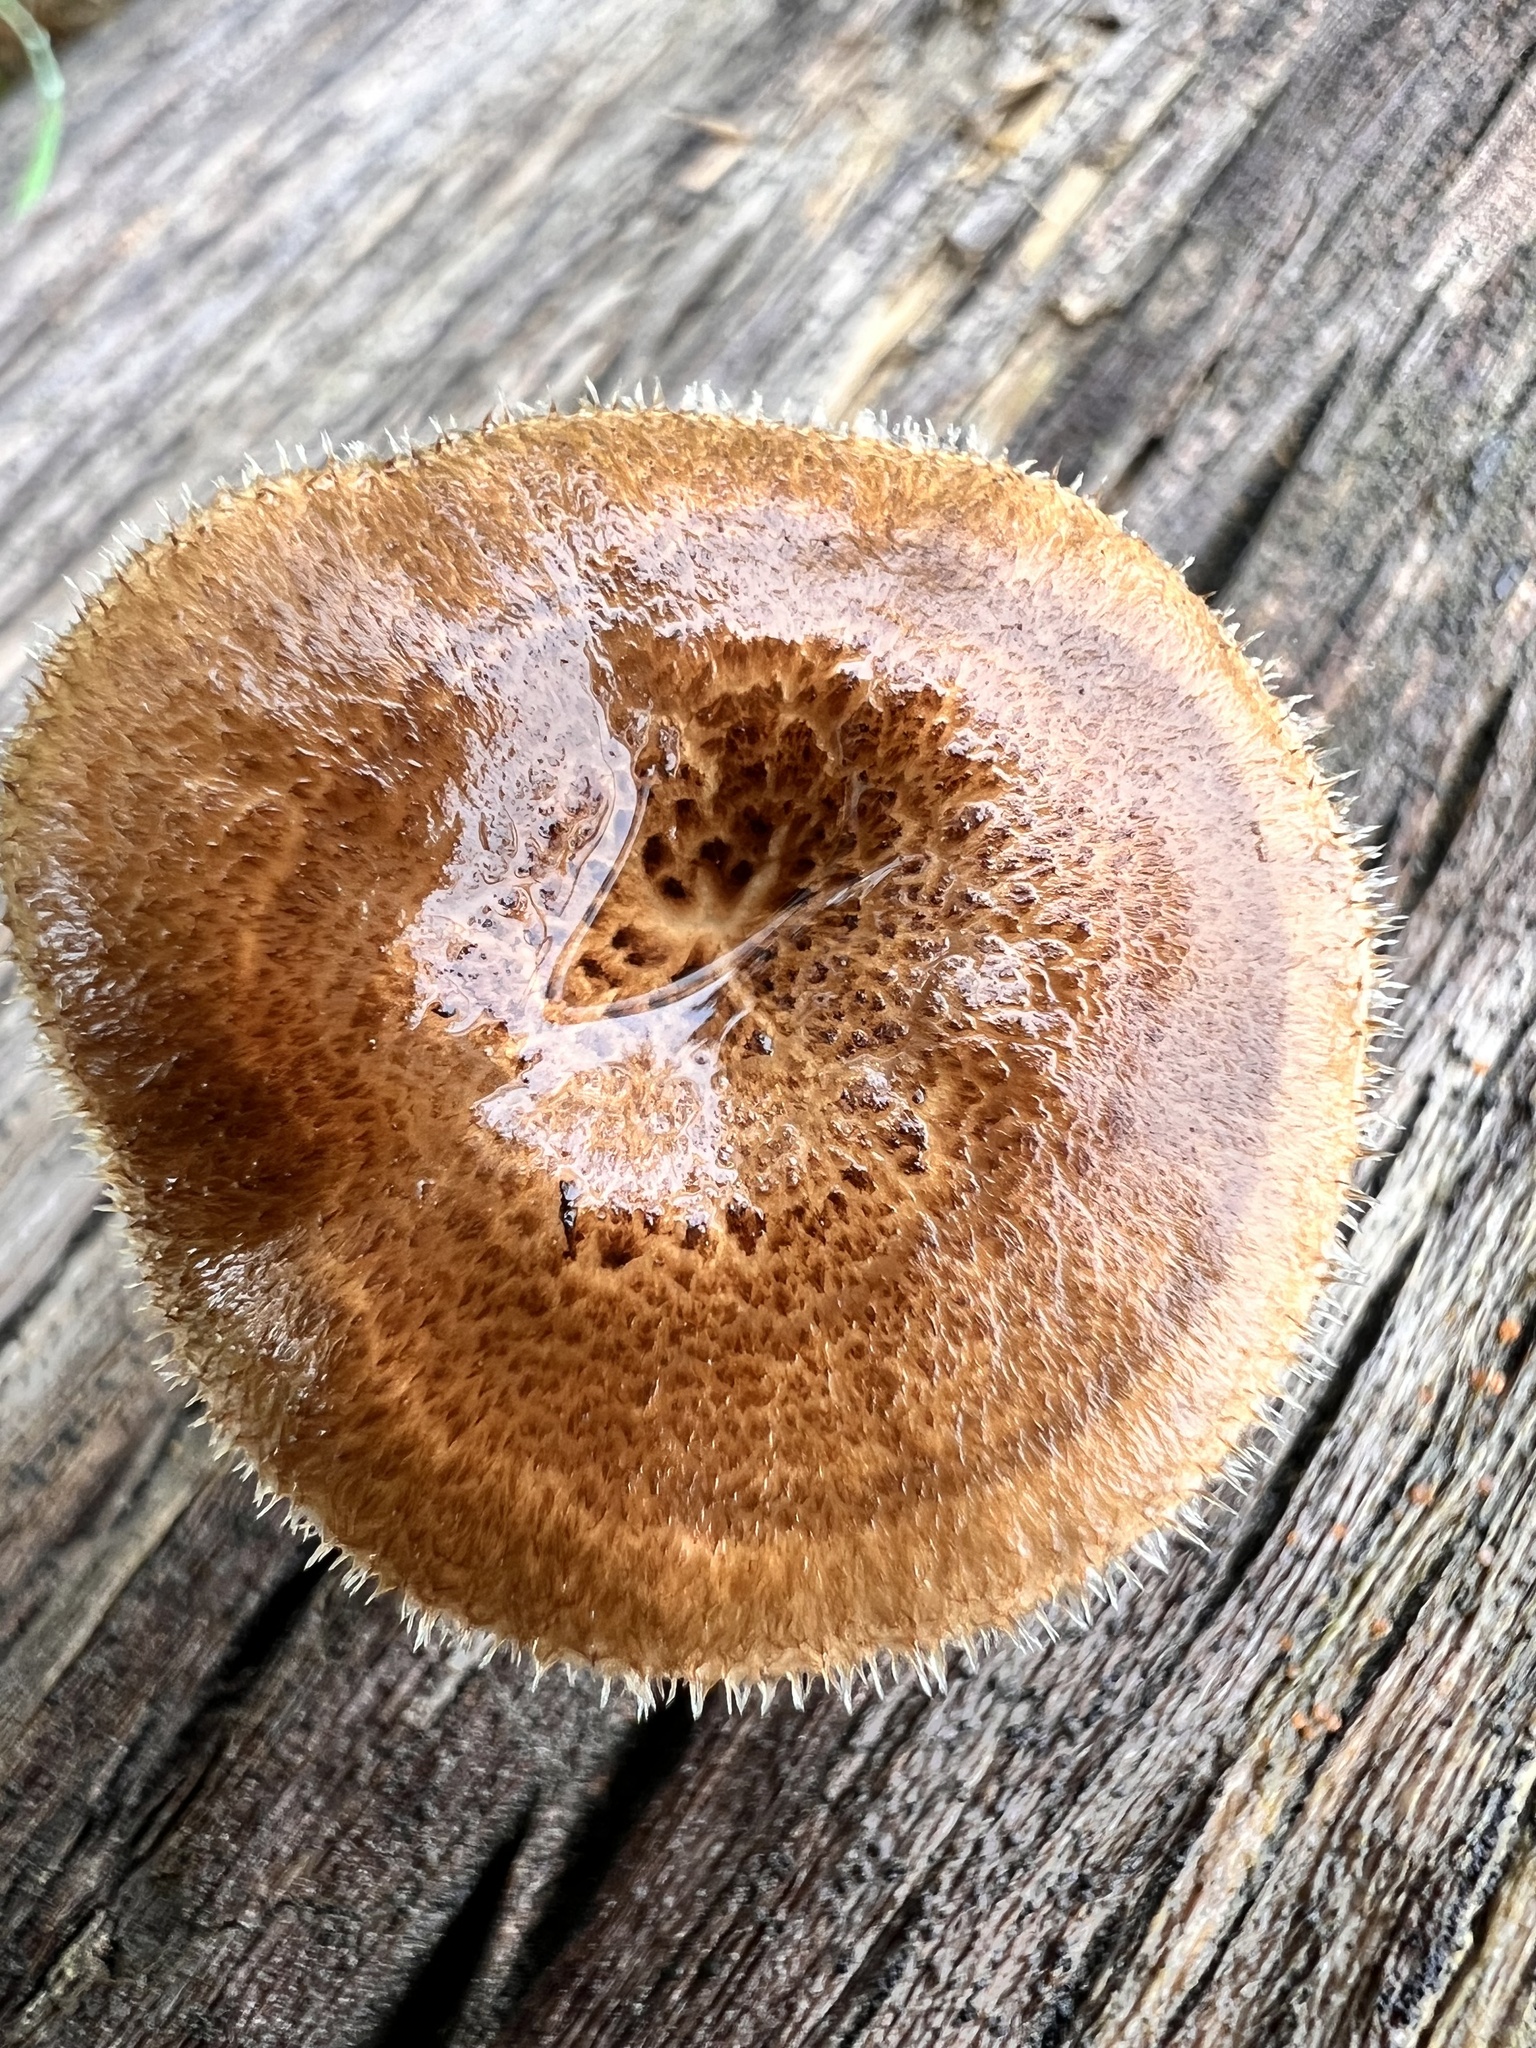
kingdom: Fungi
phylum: Basidiomycota
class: Agaricomycetes
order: Polyporales
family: Polyporaceae
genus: Lentinus
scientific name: Lentinus arcularius
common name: Spring polypore
